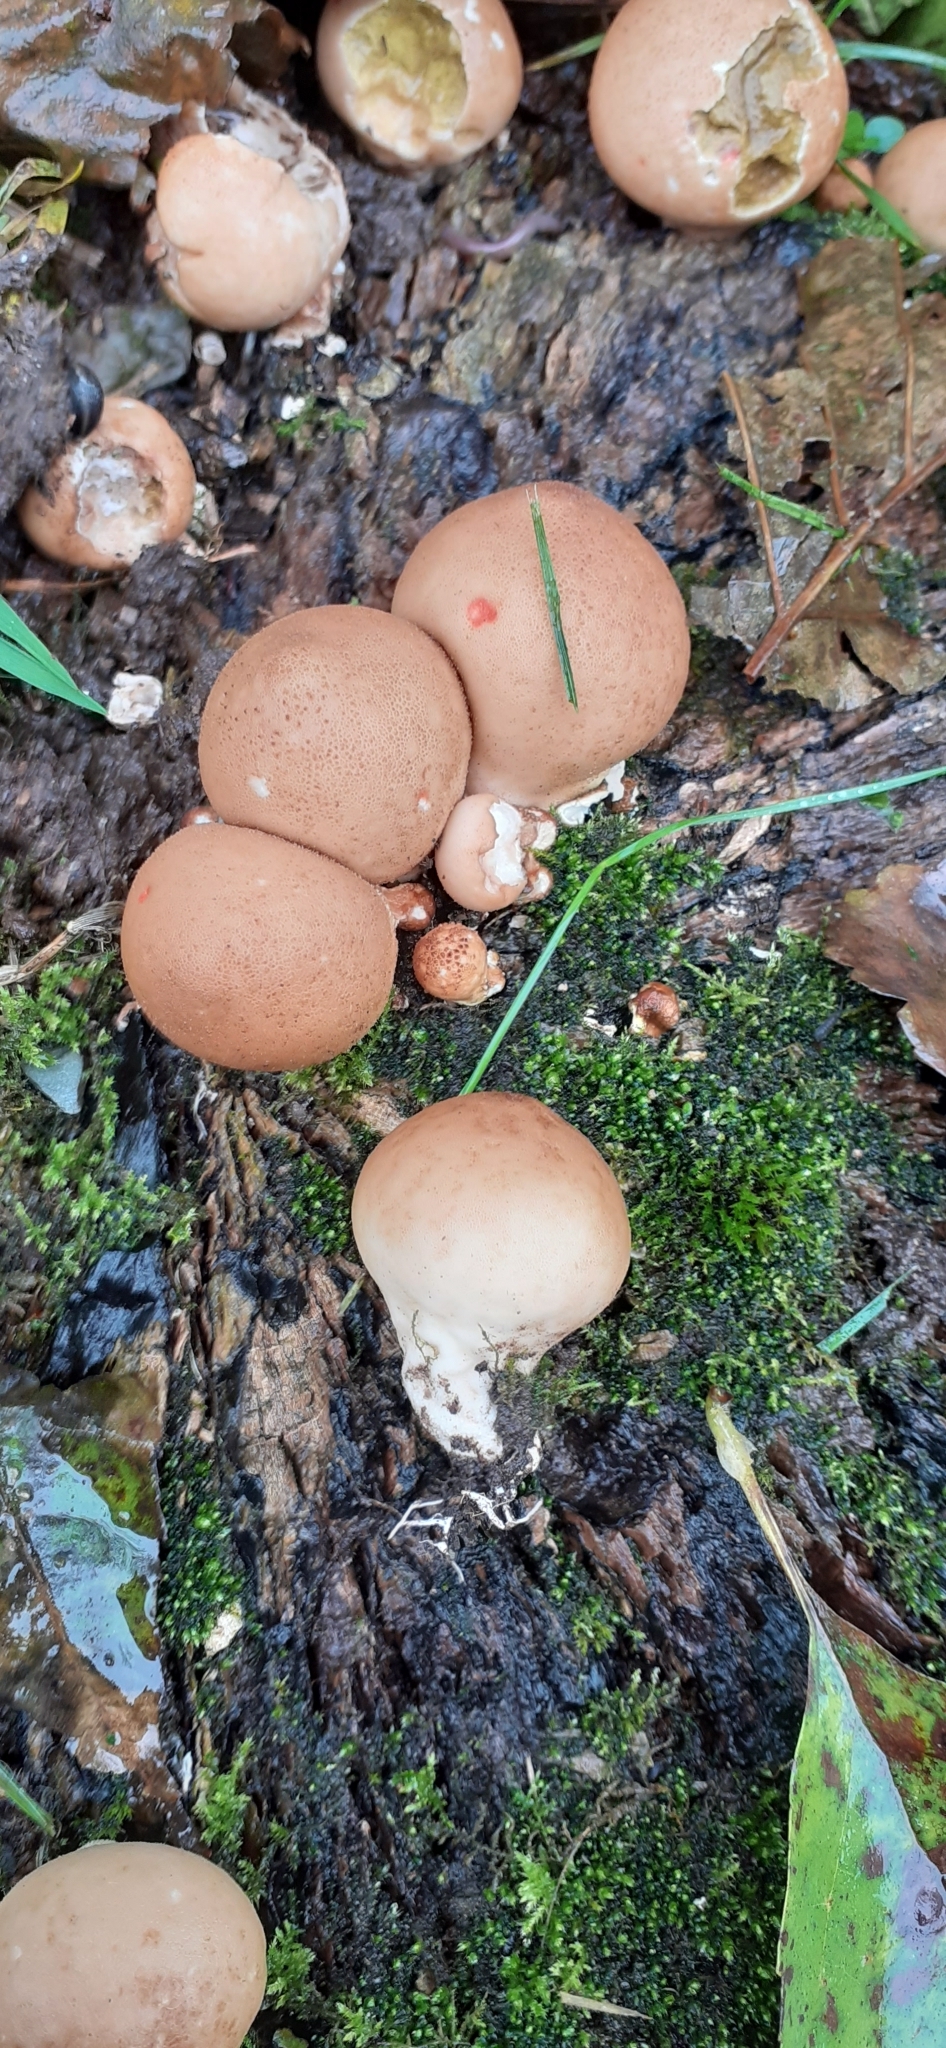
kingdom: Fungi
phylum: Basidiomycota
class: Agaricomycetes
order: Agaricales
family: Lycoperdaceae
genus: Apioperdon
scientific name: Apioperdon pyriforme
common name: Pear-shaped puffball
